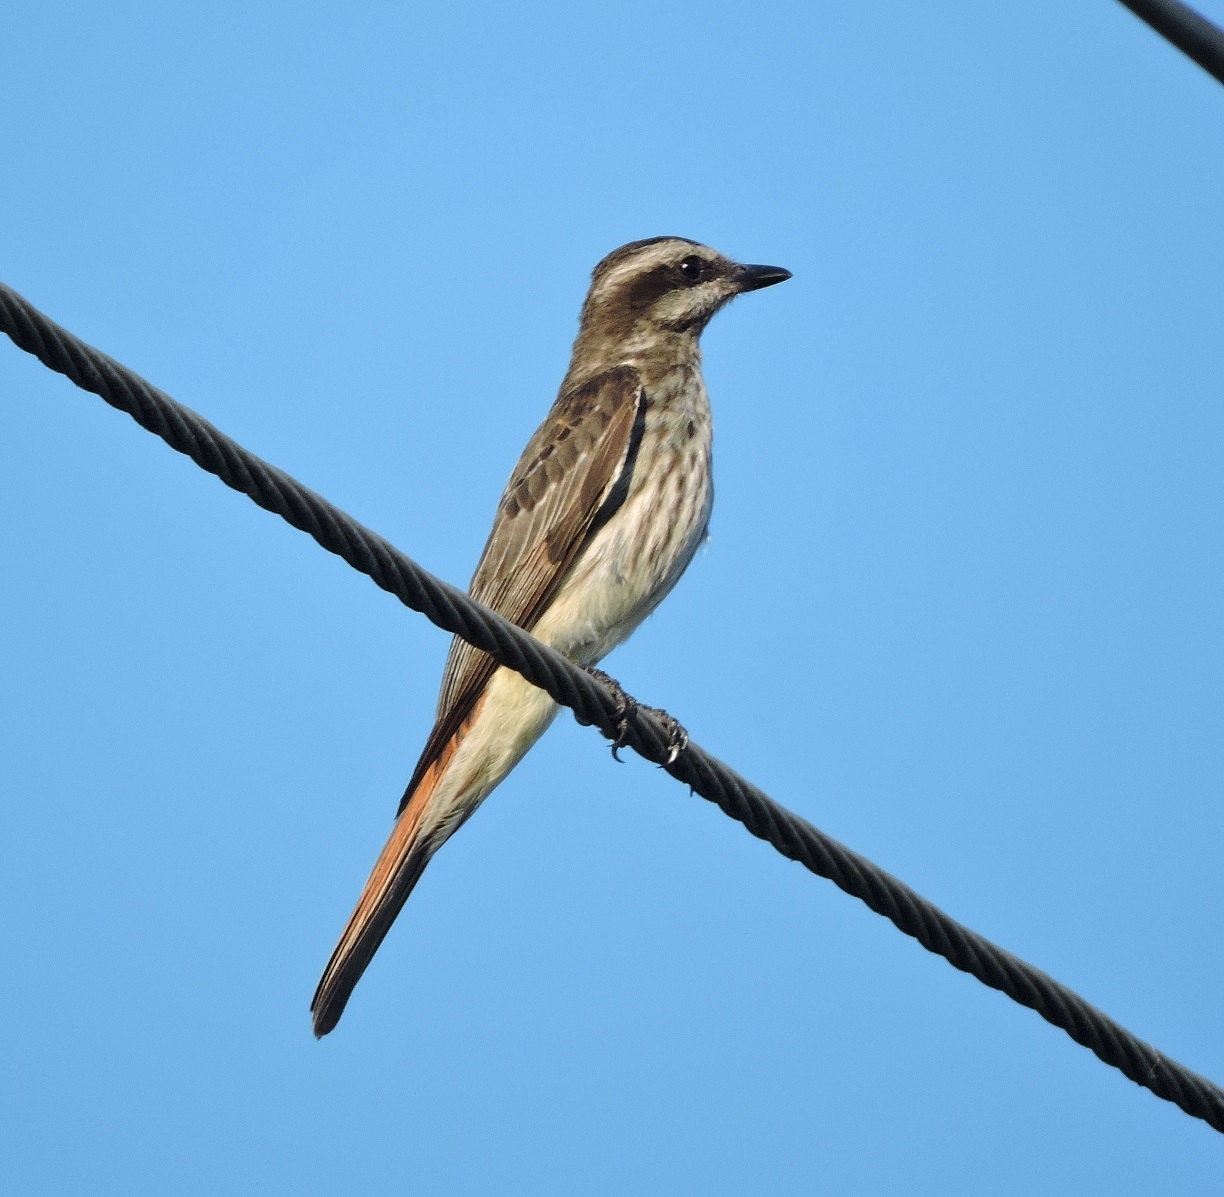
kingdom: Animalia
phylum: Chordata
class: Aves
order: Passeriformes
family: Tyrannidae
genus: Empidonomus
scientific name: Empidonomus varius
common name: Variegated flycatcher
